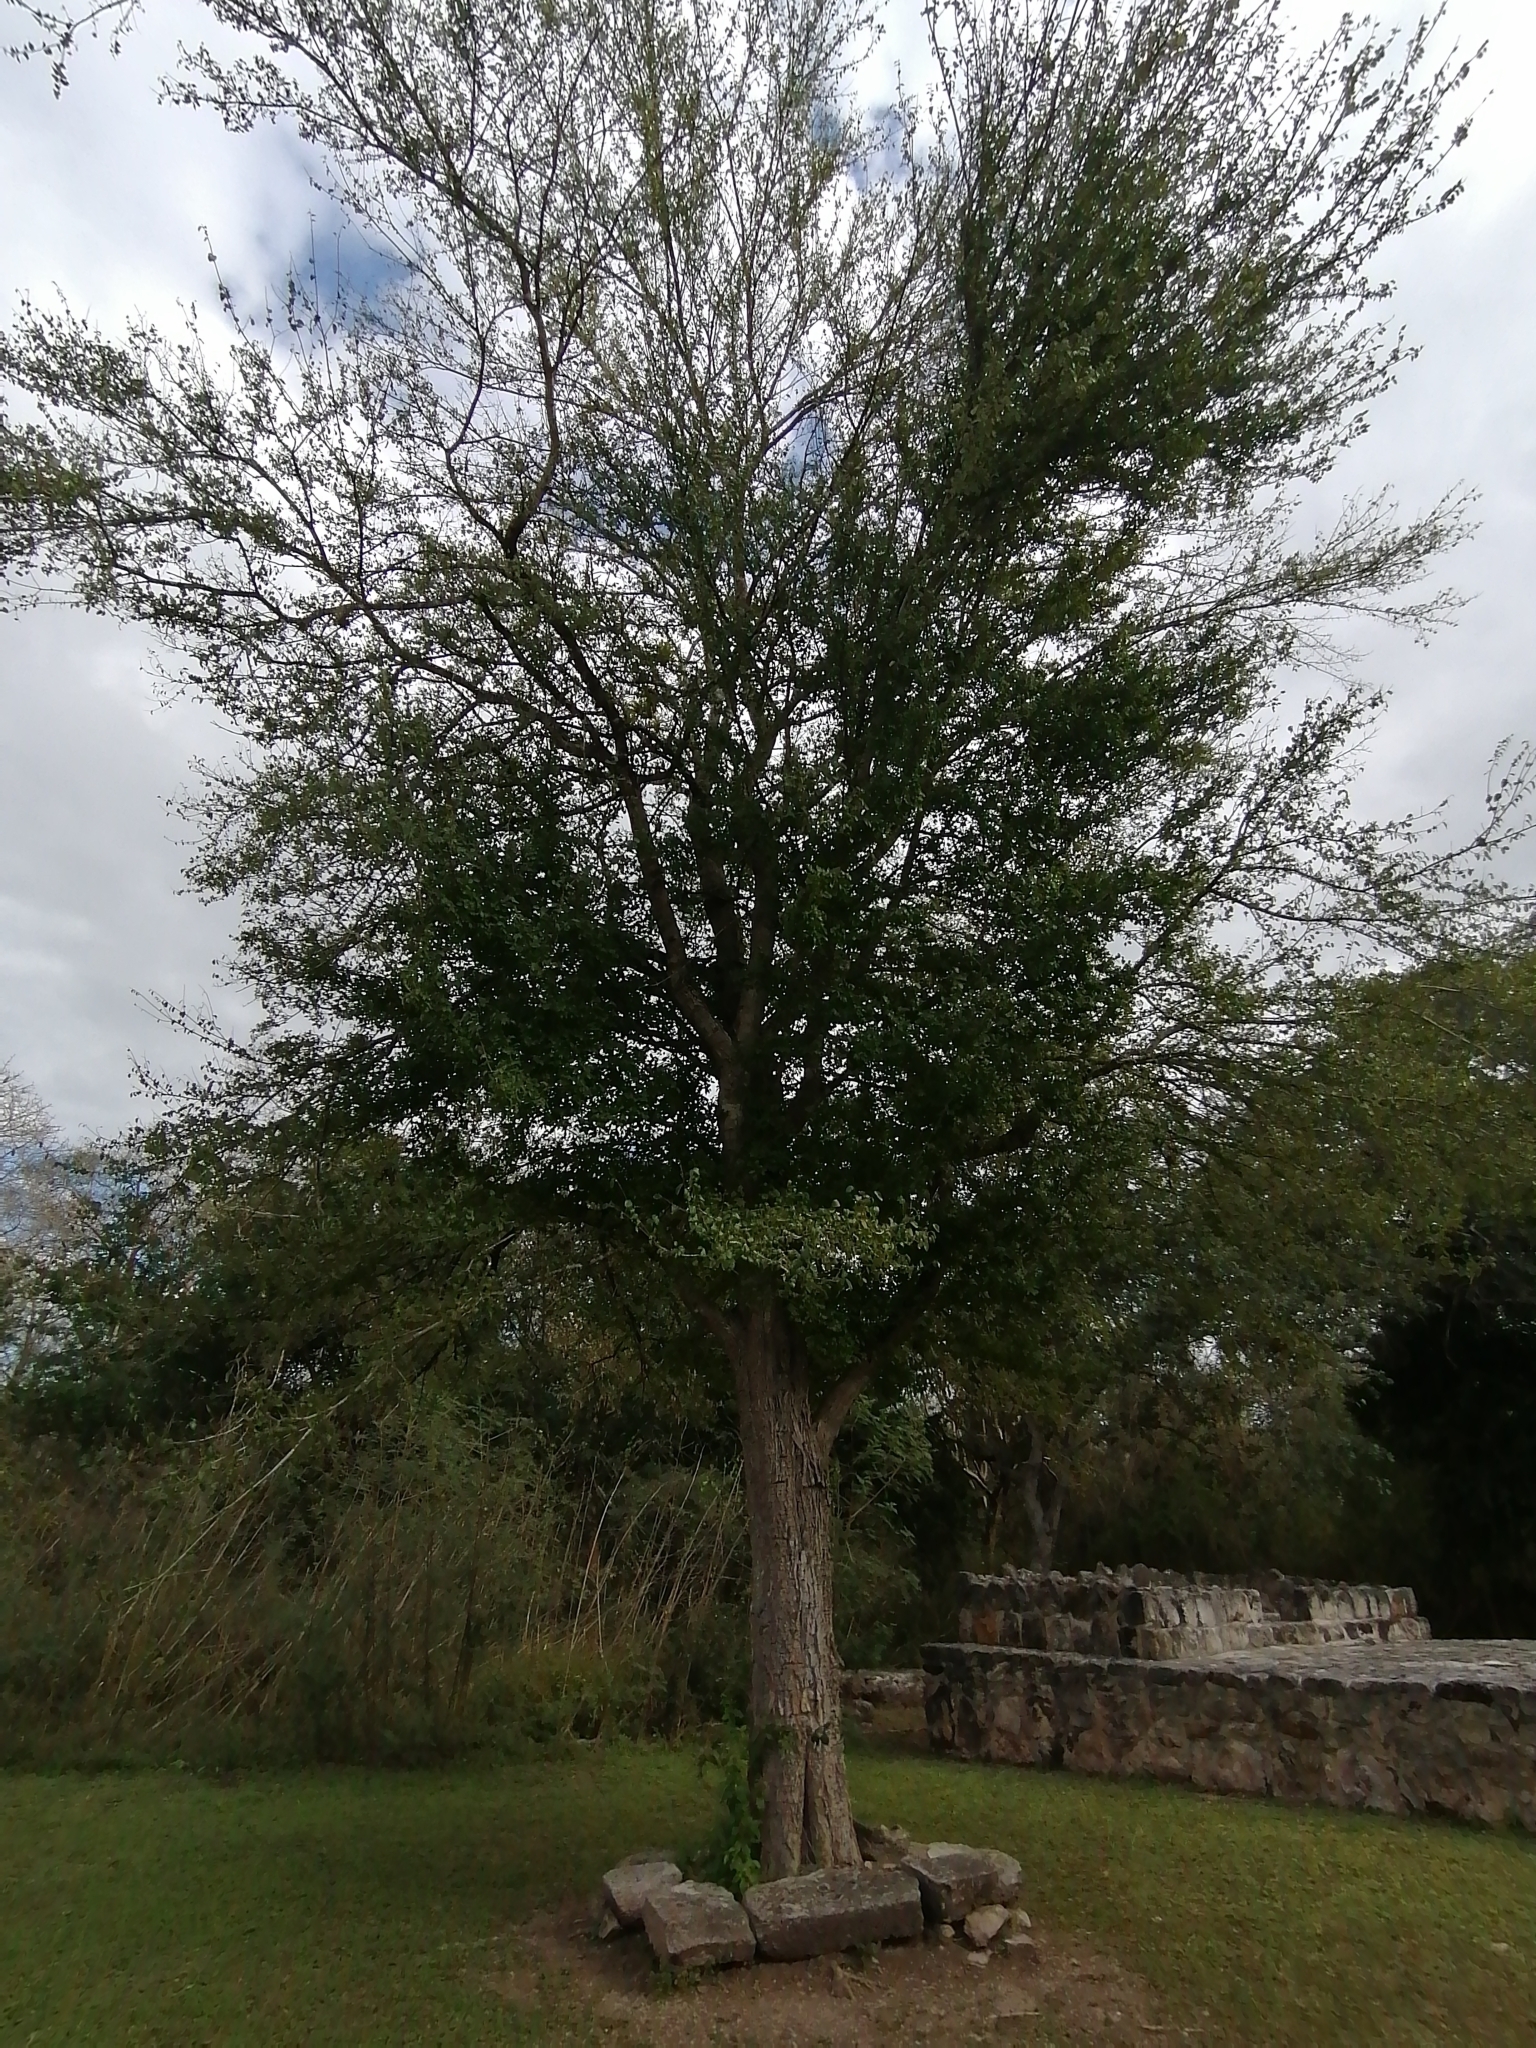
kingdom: Plantae
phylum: Tracheophyta
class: Magnoliopsida
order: Sapindales
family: Meliaceae
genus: Cedrela
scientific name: Cedrela odorata
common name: Red cedar
